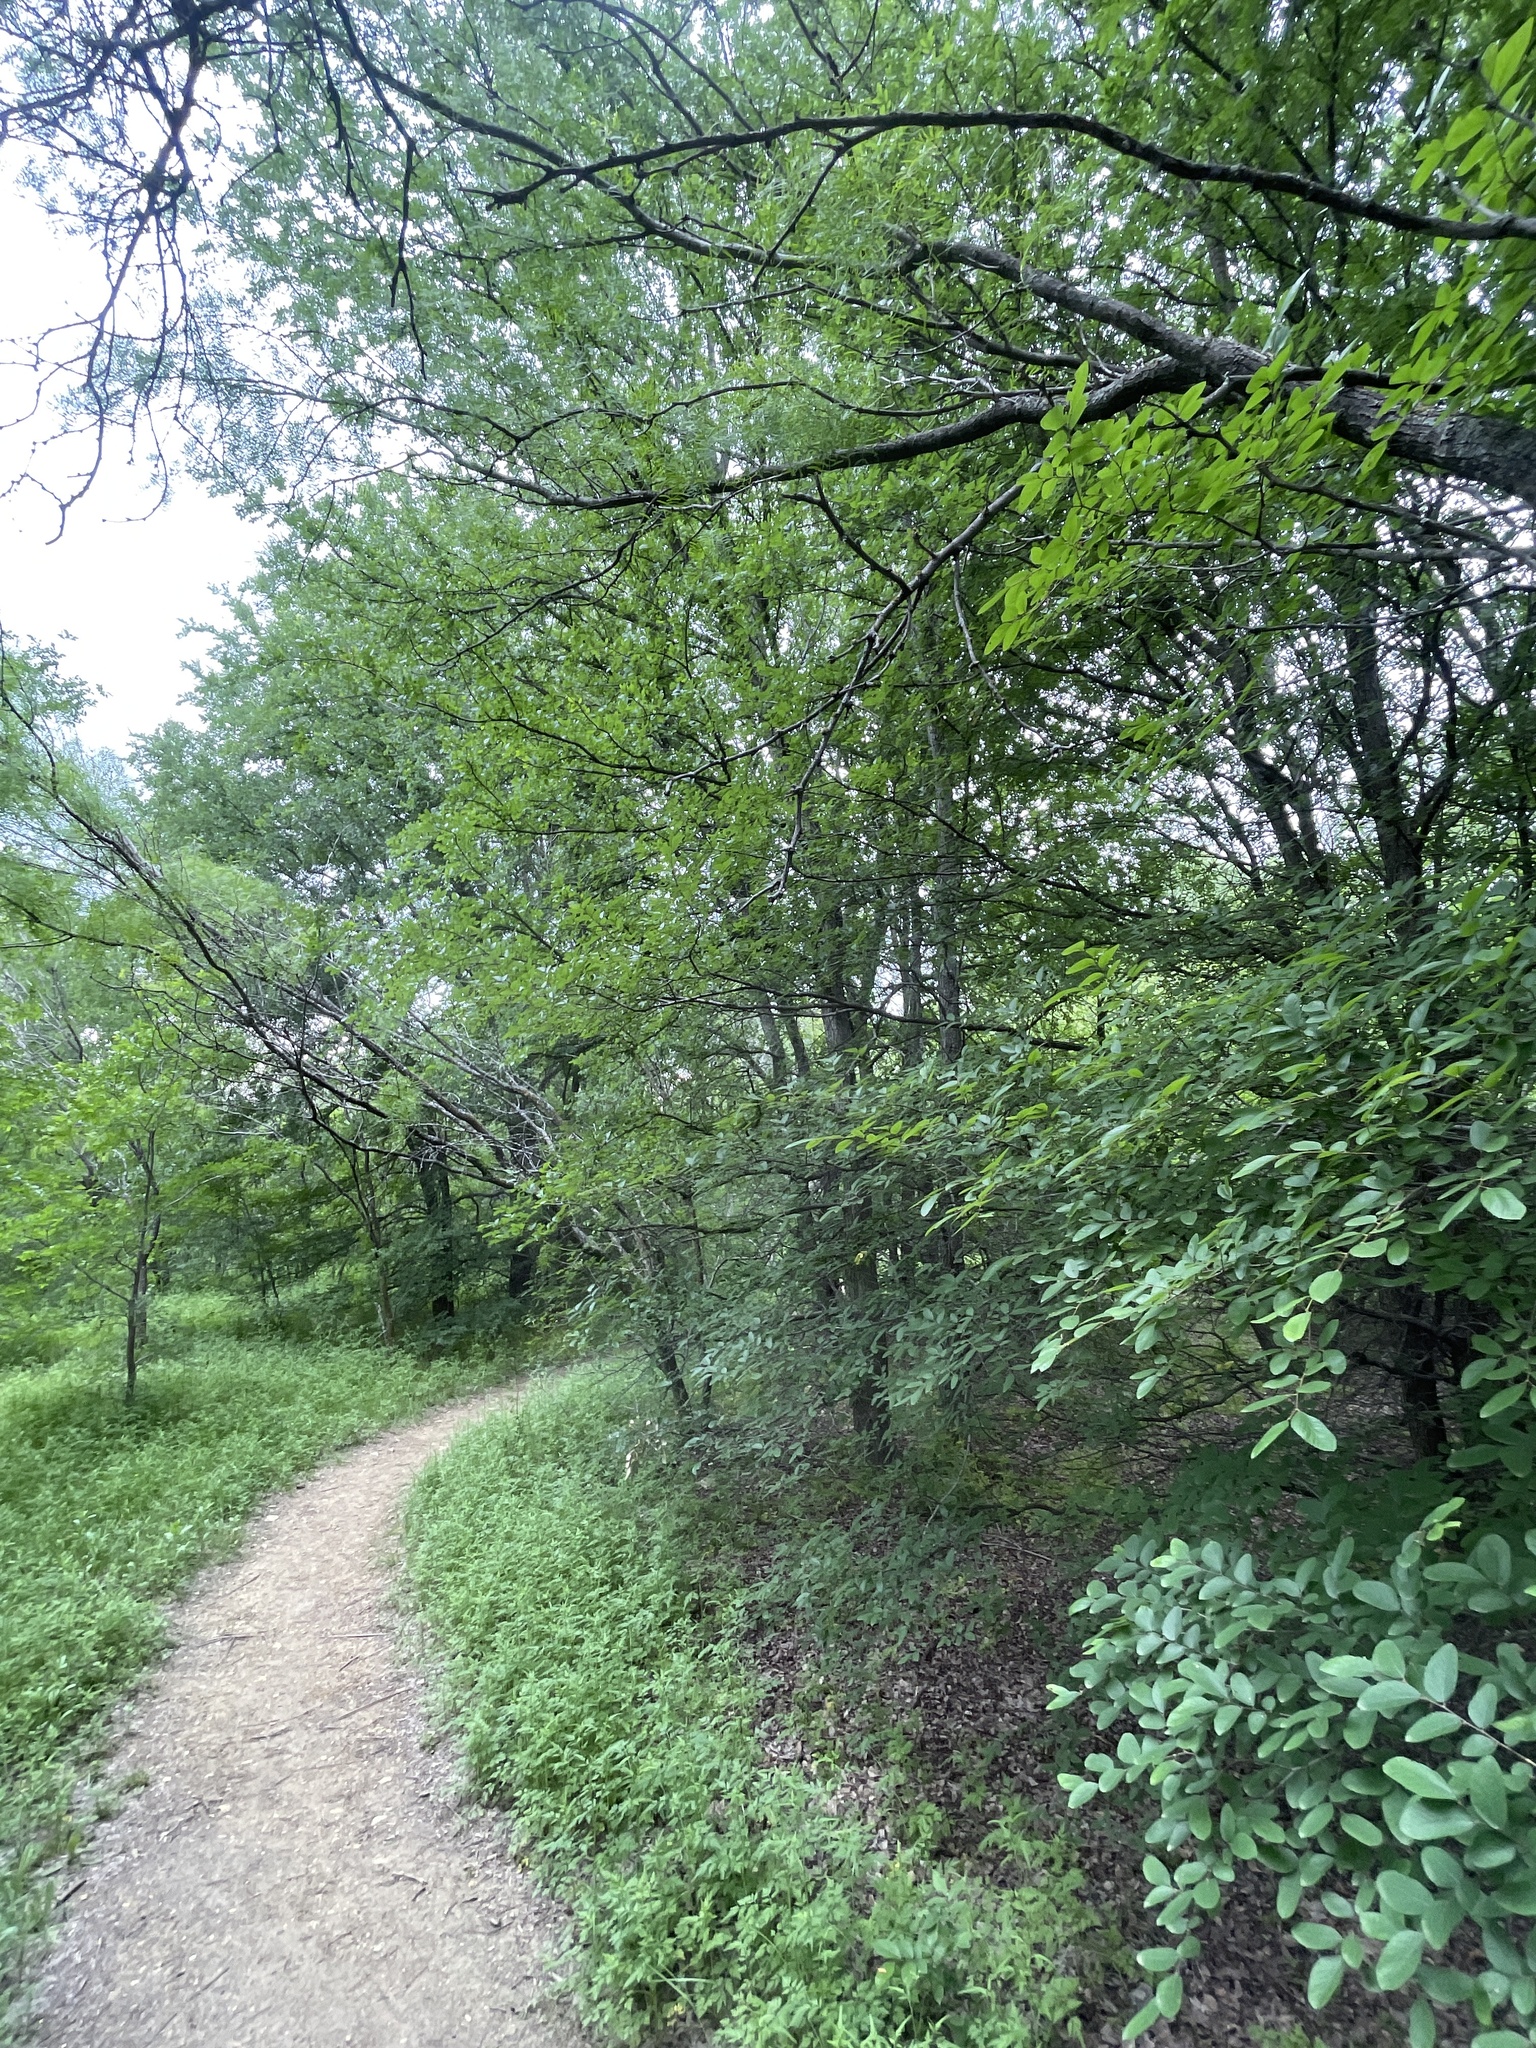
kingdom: Plantae
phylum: Tracheophyta
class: Magnoliopsida
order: Rosales
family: Ulmaceae
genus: Ulmus
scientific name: Ulmus crassifolia
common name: Basket elm
